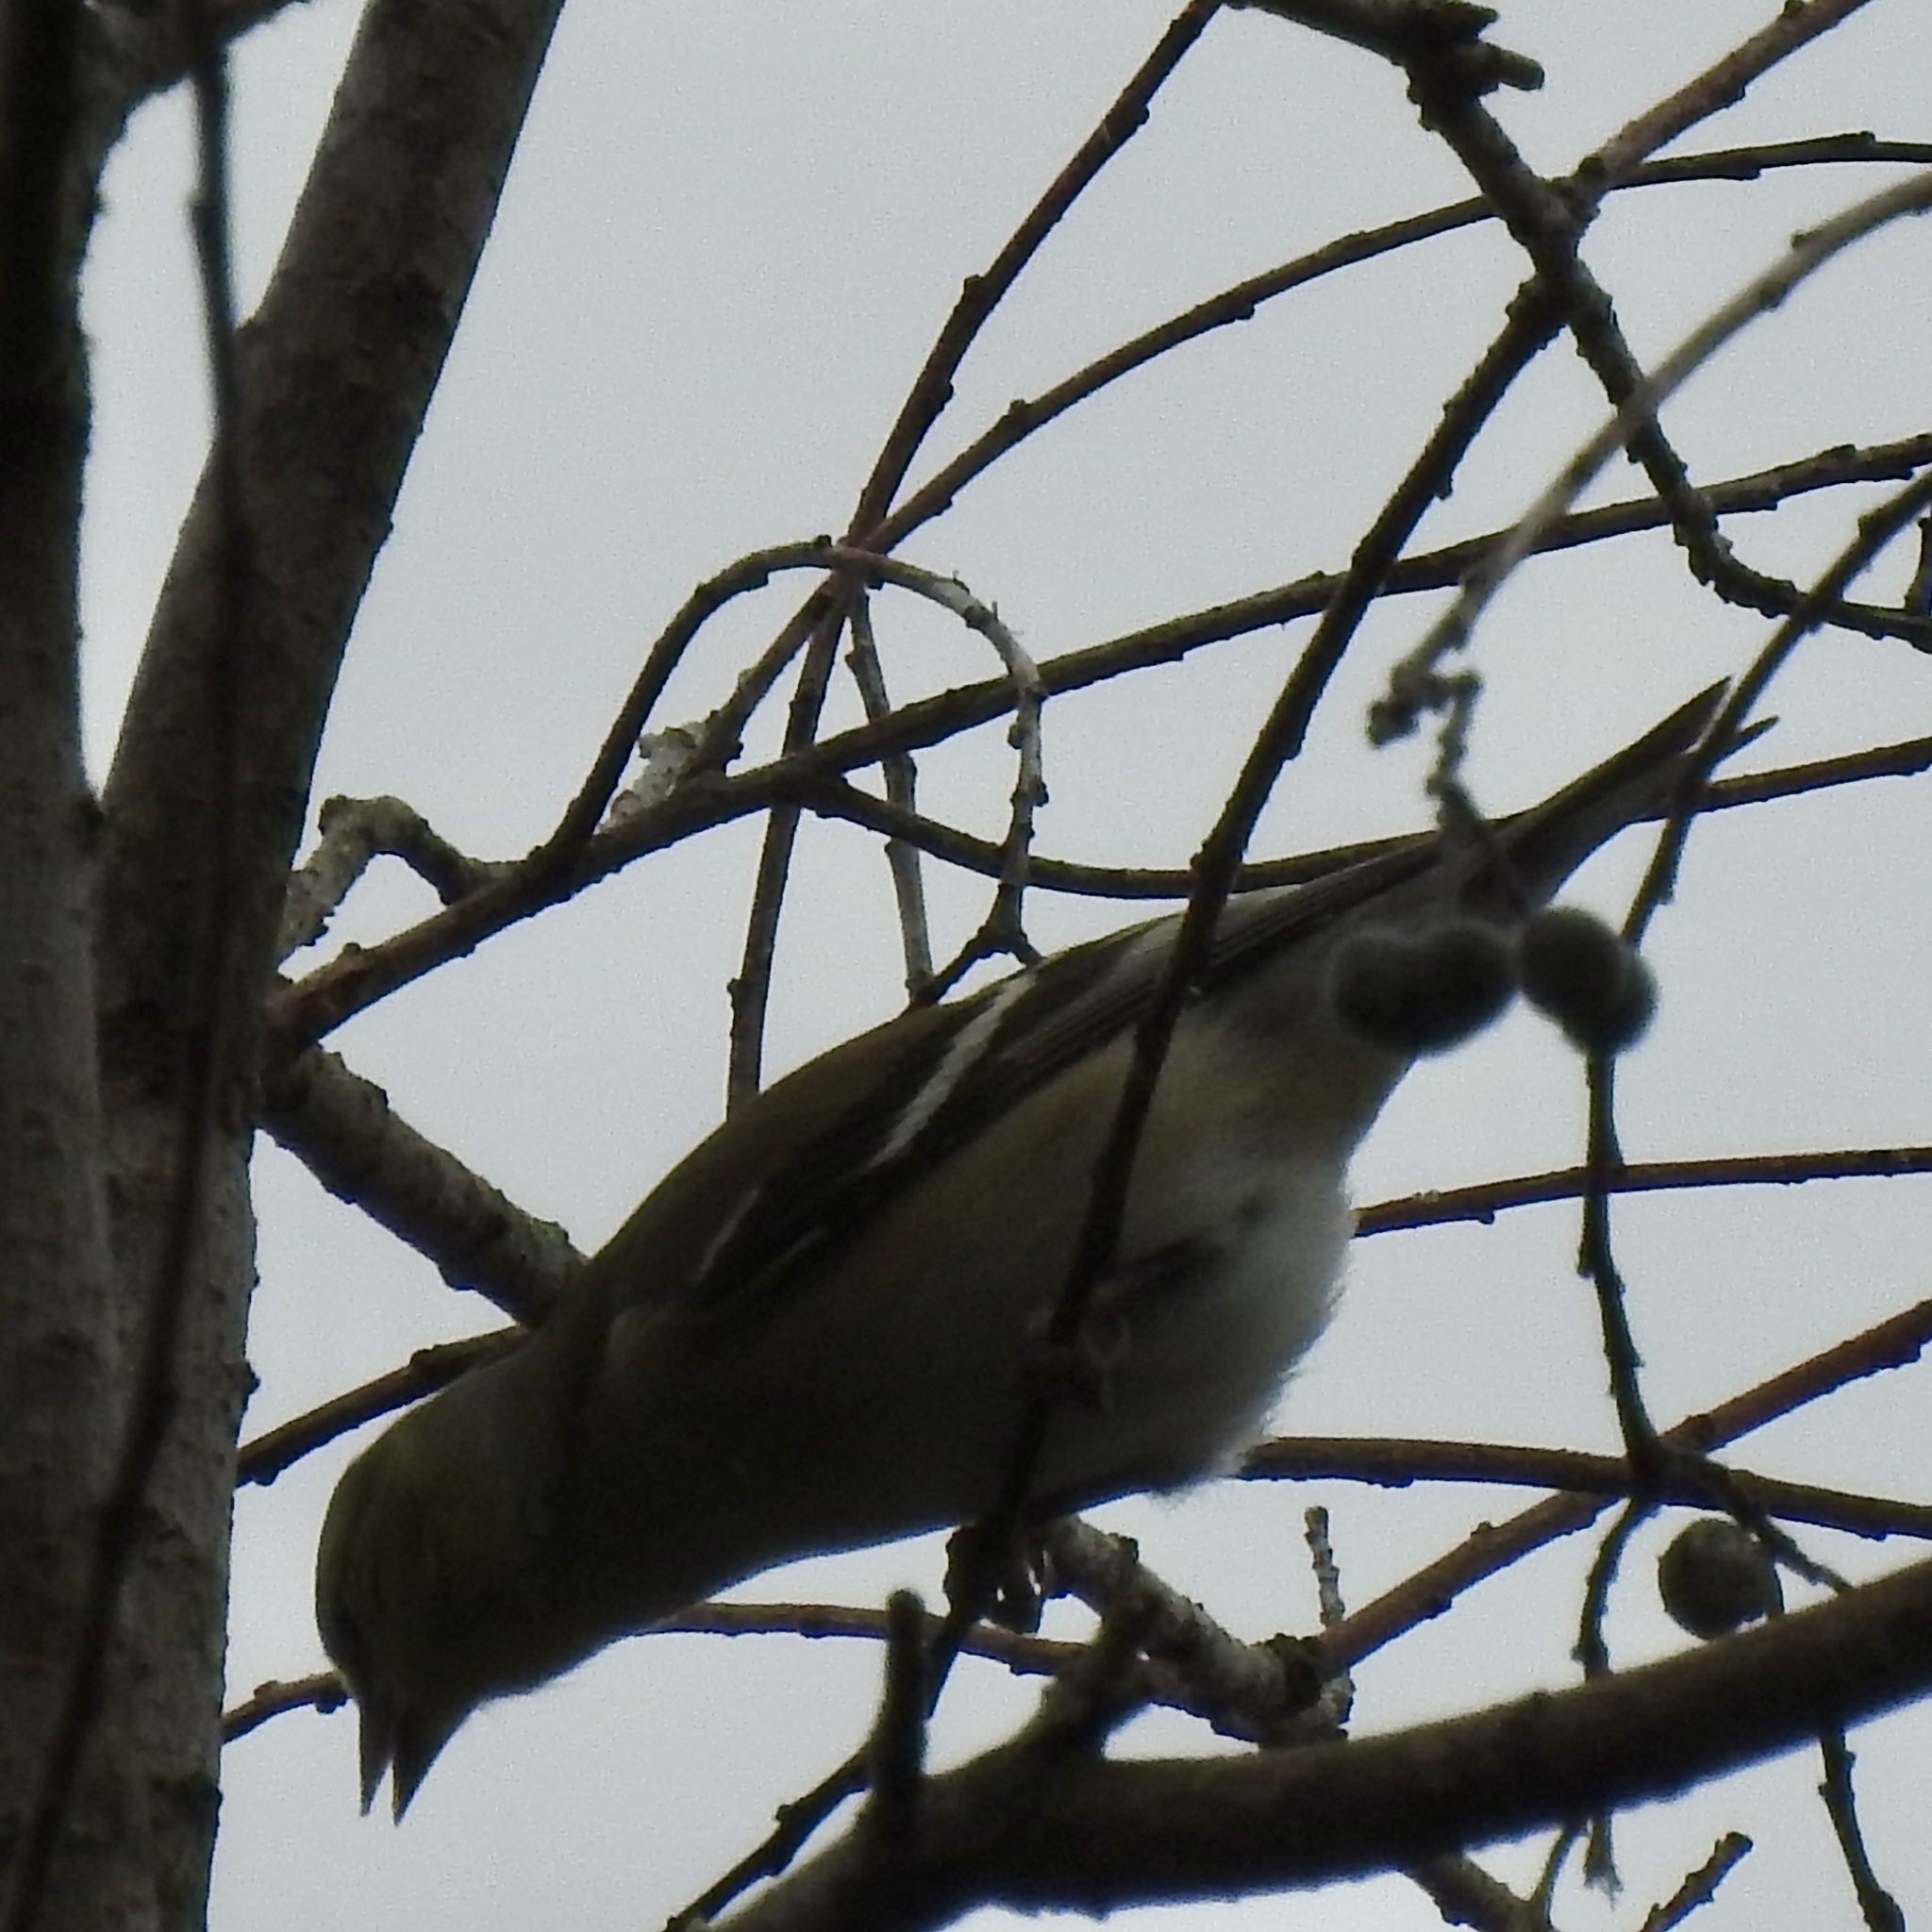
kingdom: Animalia
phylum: Chordata
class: Aves
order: Passeriformes
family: Fringillidae
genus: Spinus
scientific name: Spinus tristis
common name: American goldfinch
